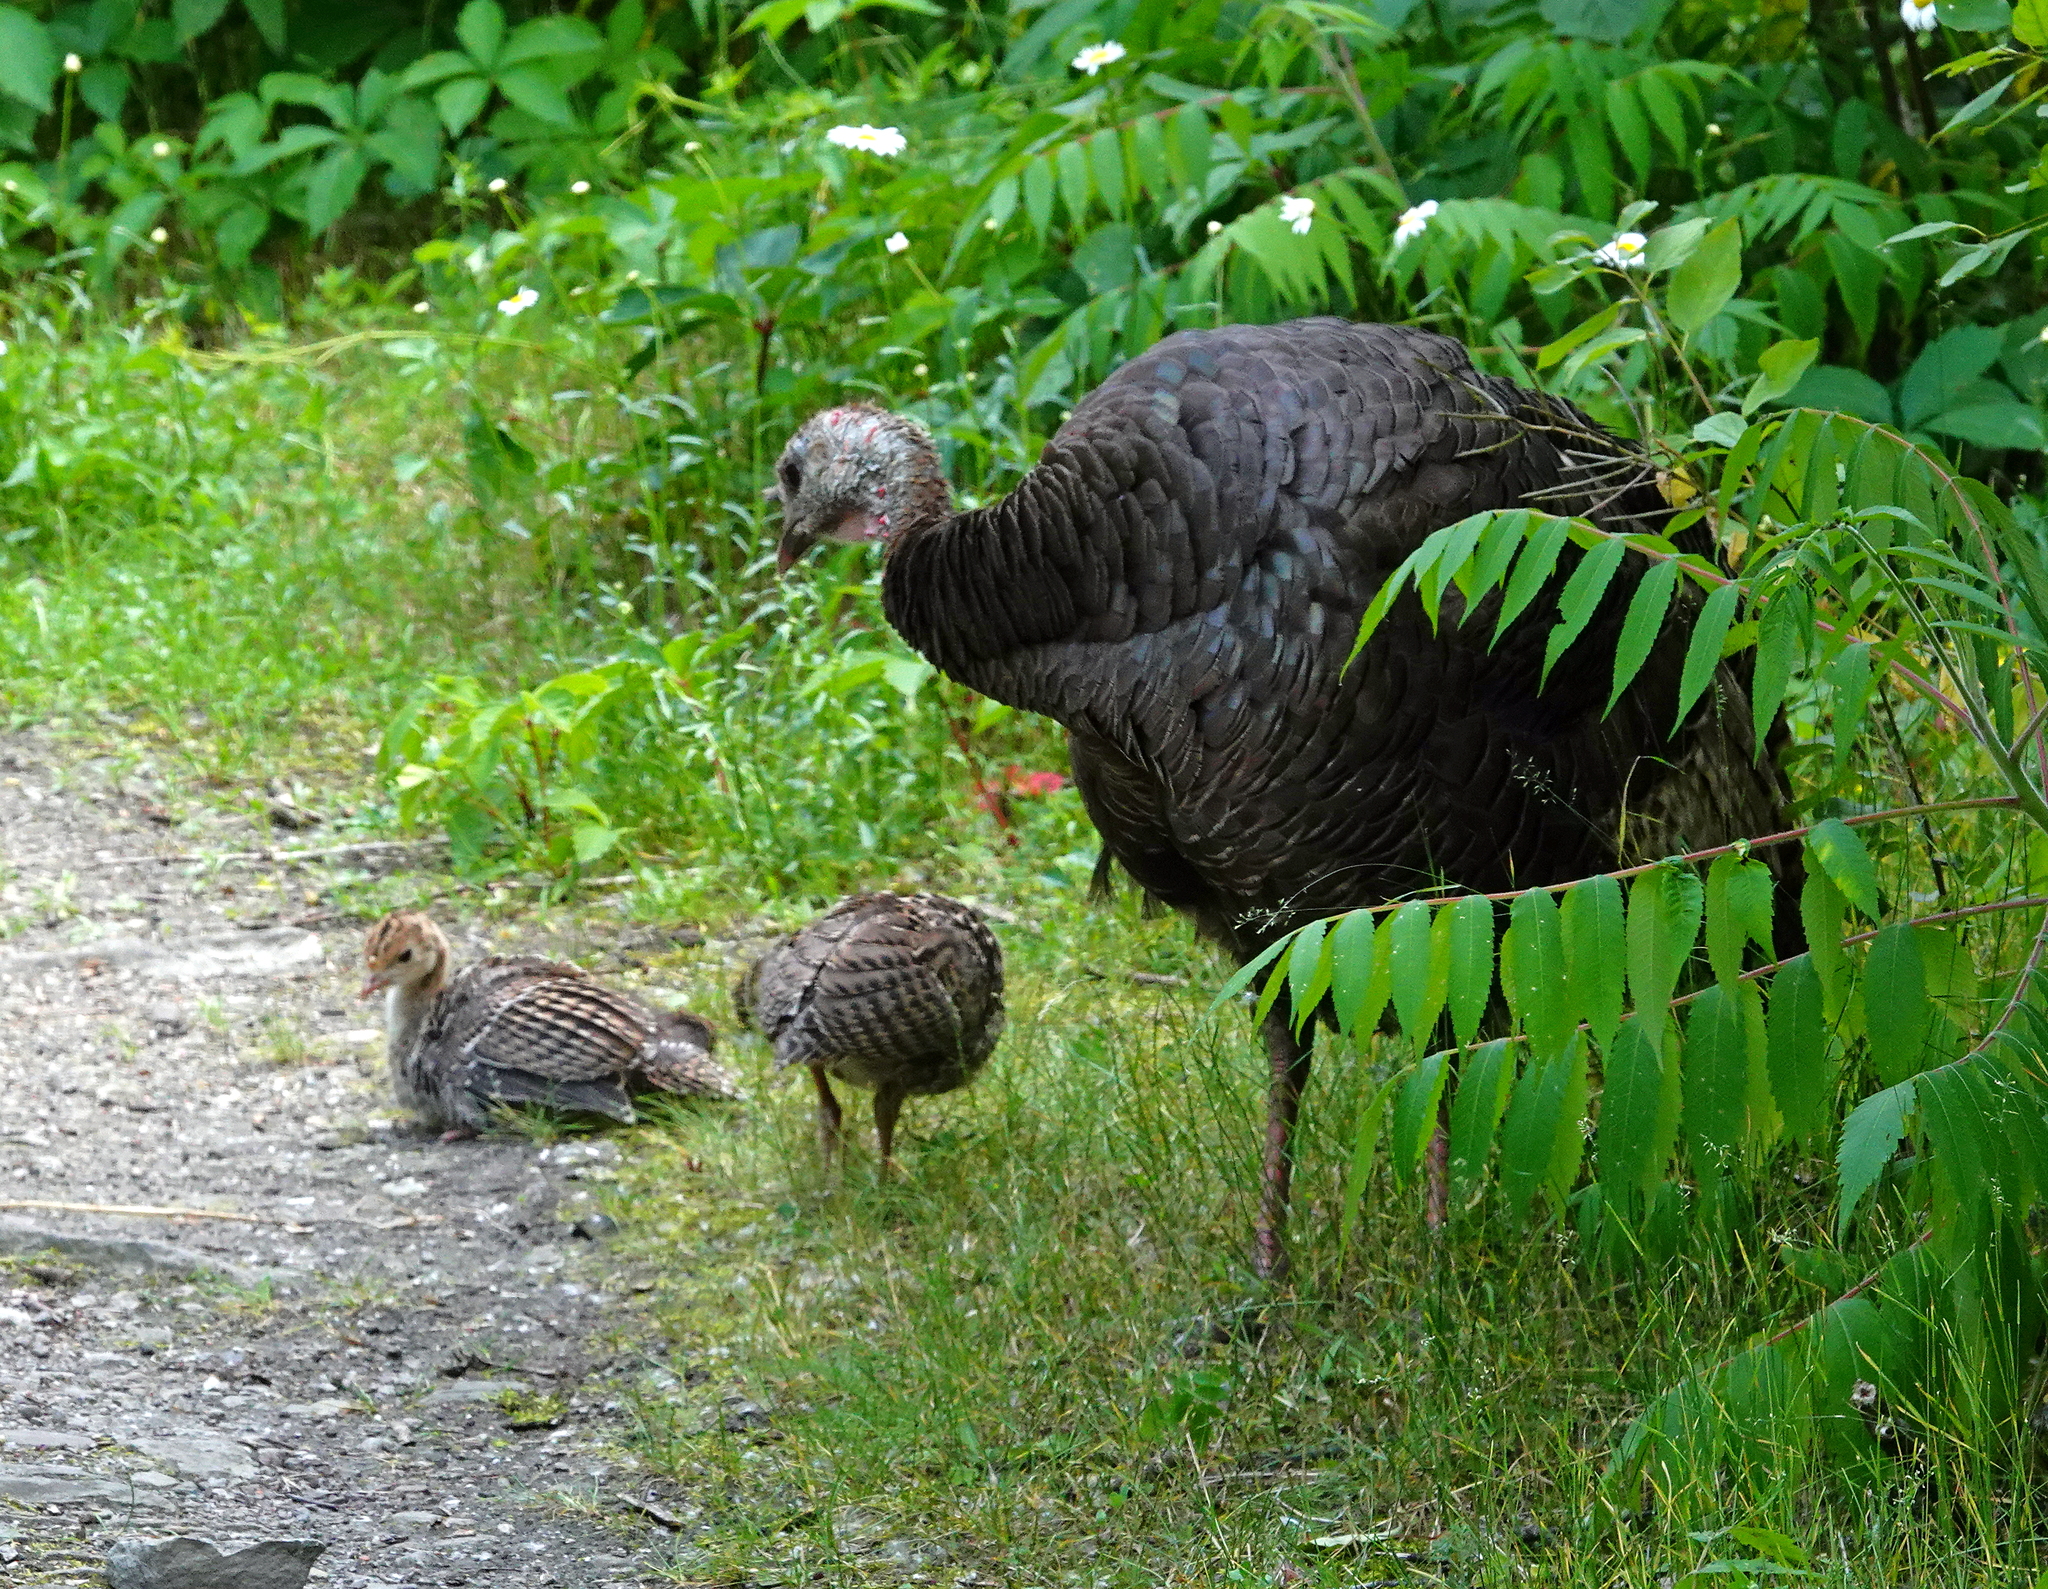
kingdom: Animalia
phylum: Chordata
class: Aves
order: Galliformes
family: Phasianidae
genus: Meleagris
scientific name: Meleagris gallopavo
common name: Wild turkey
